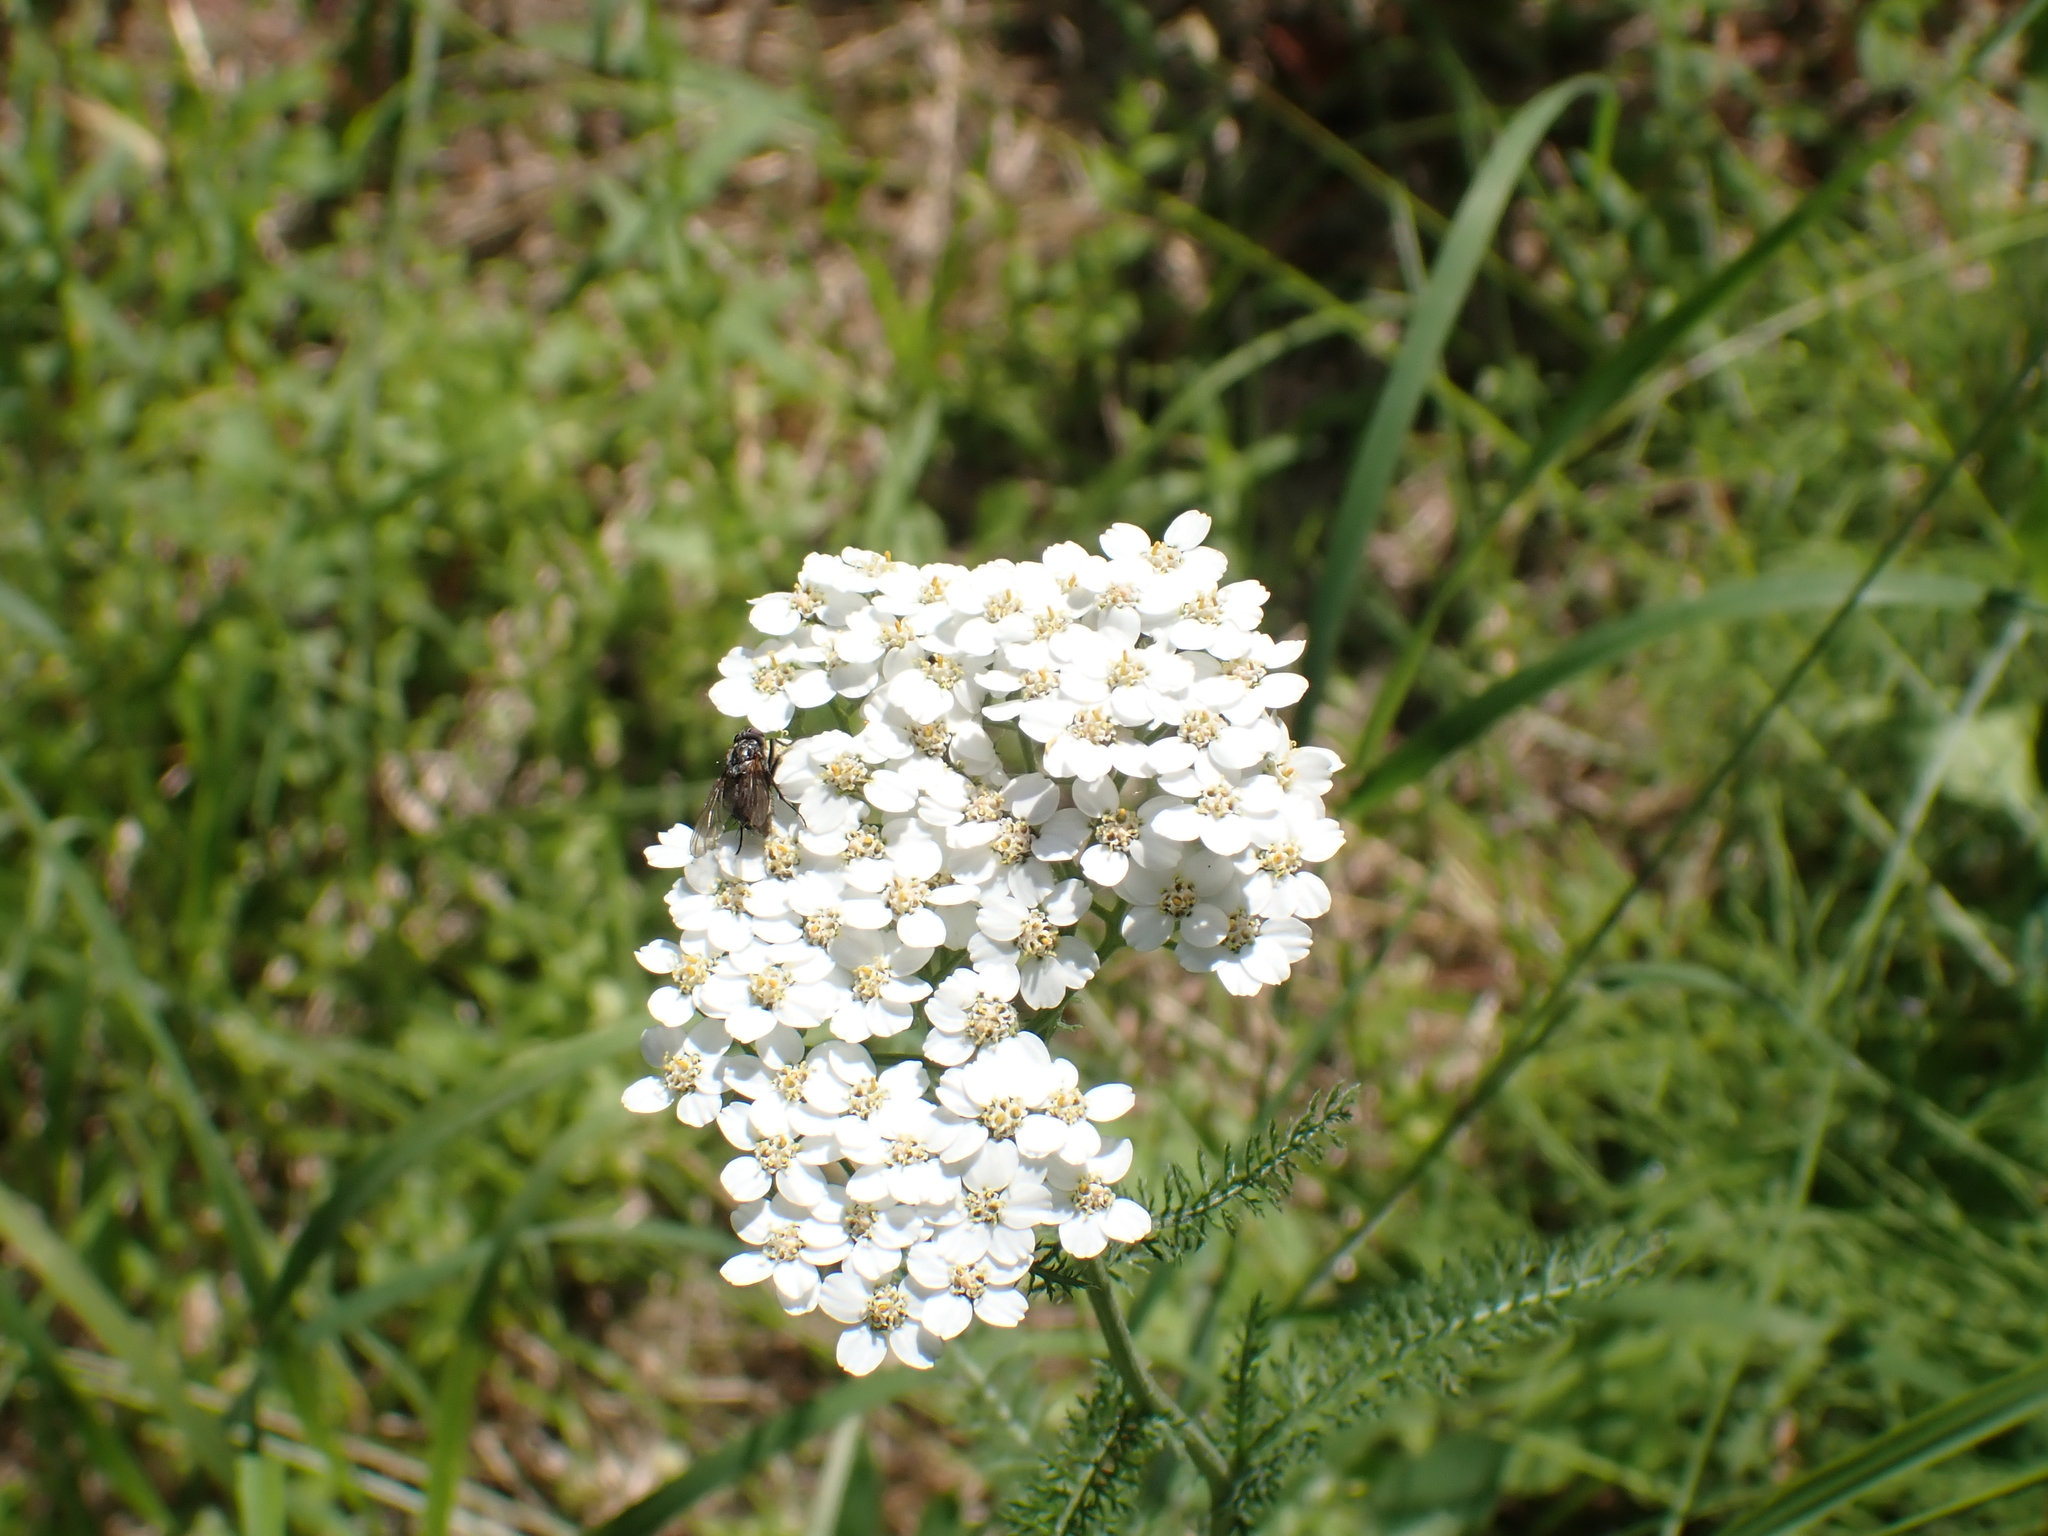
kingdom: Plantae
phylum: Tracheophyta
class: Magnoliopsida
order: Asterales
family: Asteraceae
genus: Achillea
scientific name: Achillea millefolium
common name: Yarrow
